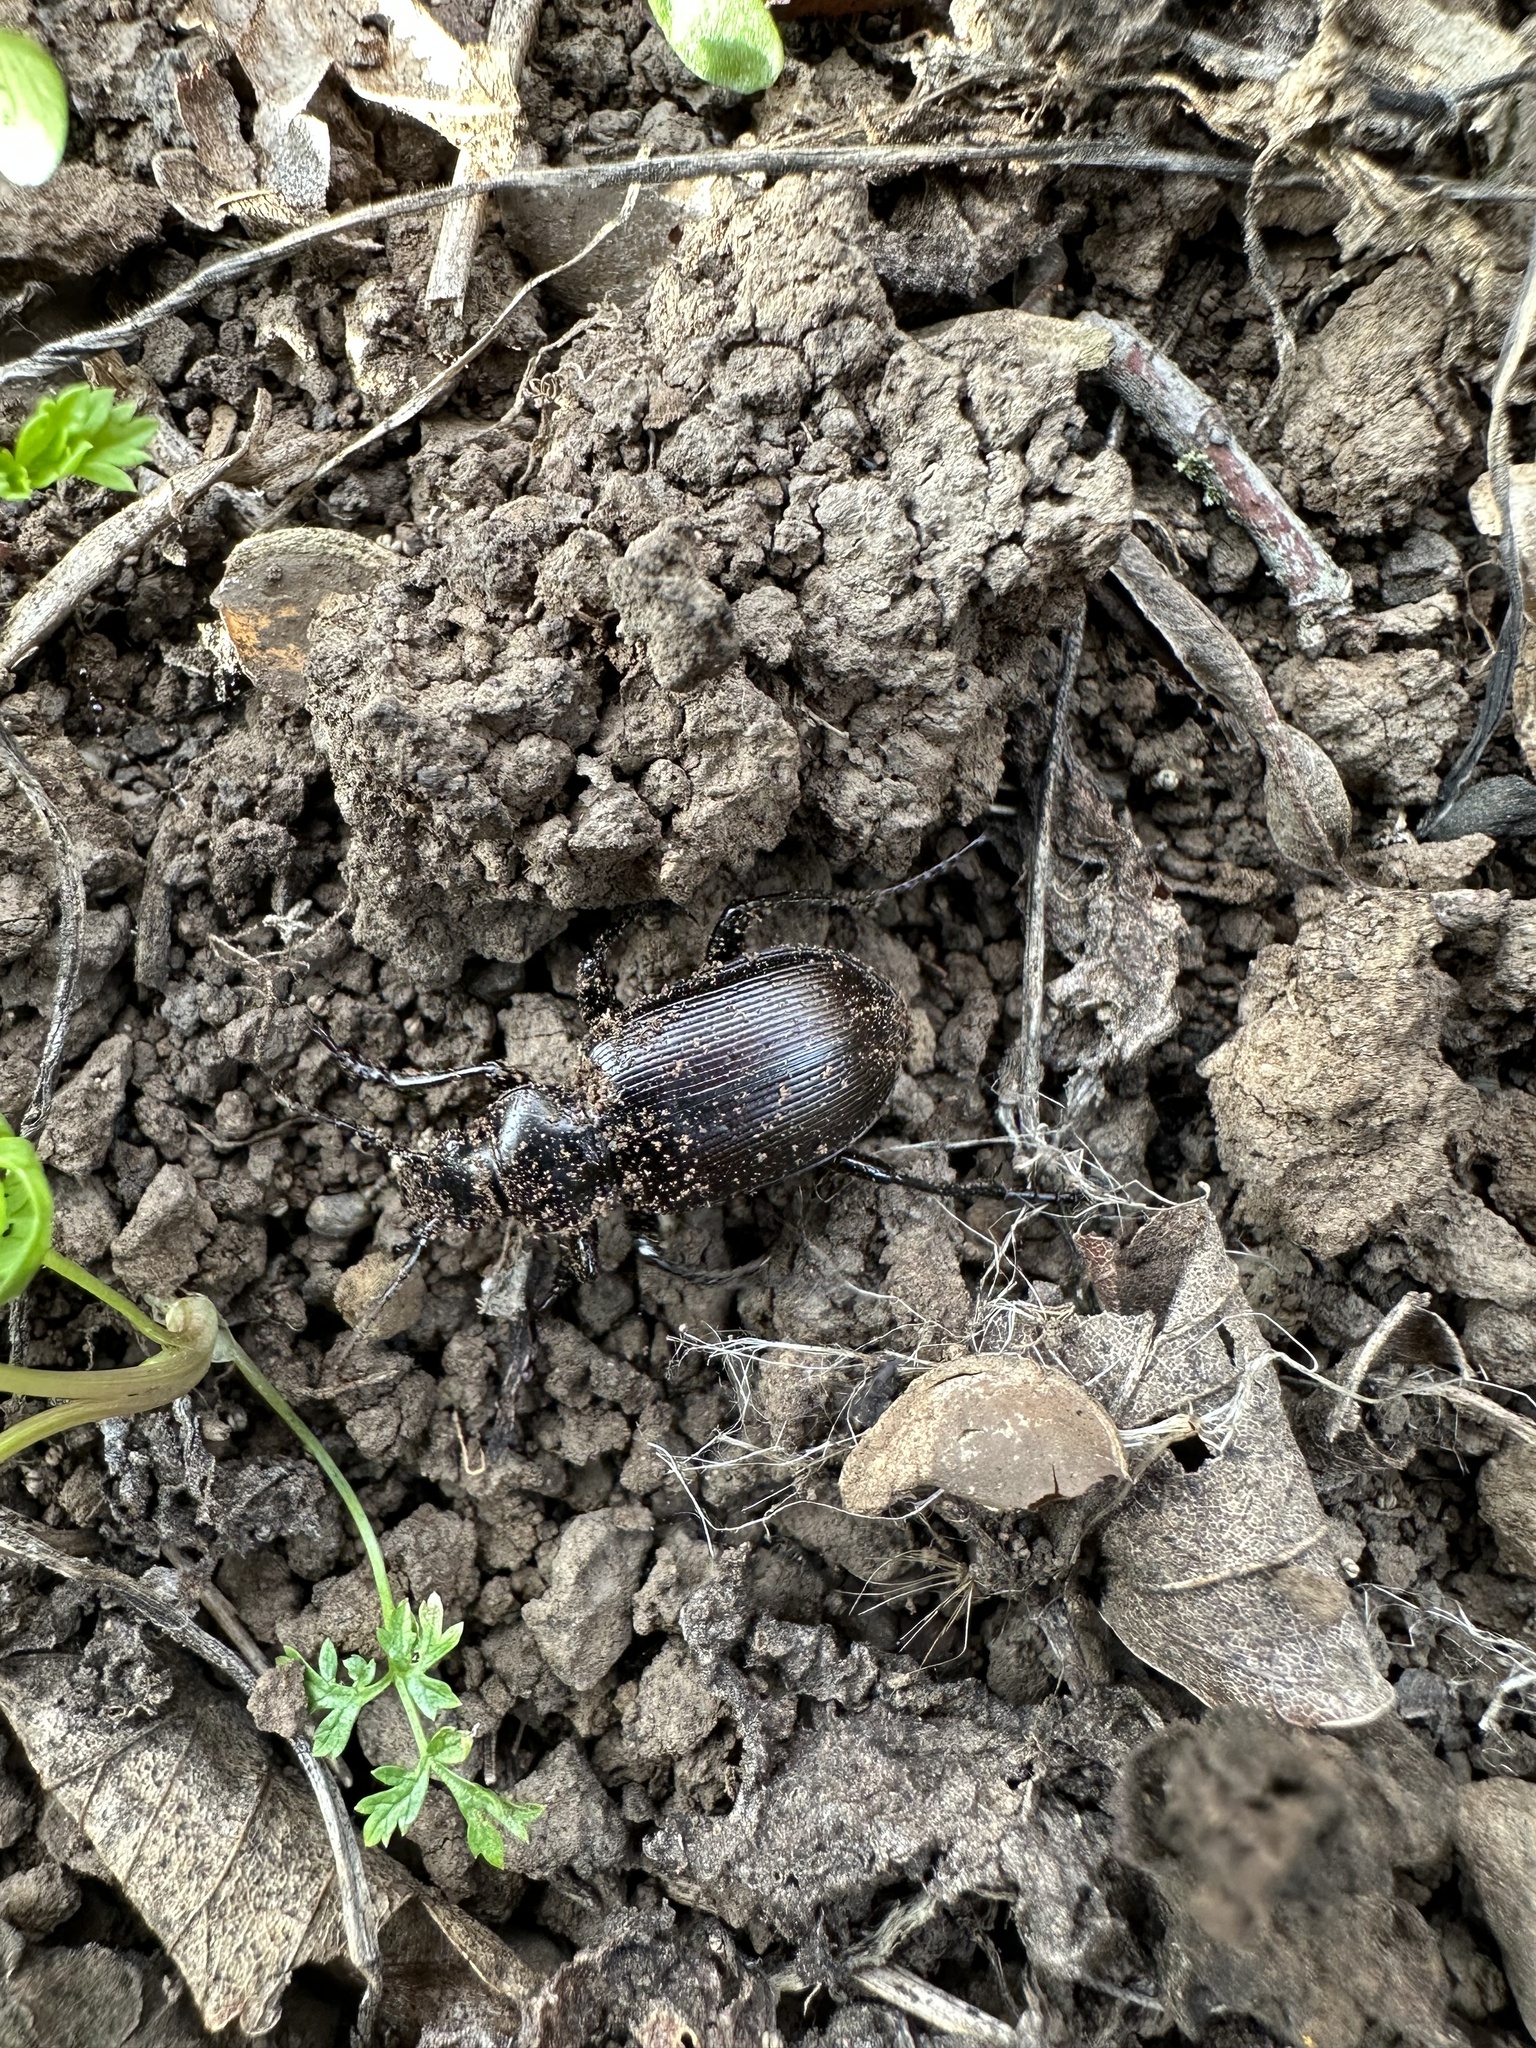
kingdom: Animalia
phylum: Arthropoda
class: Insecta
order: Coleoptera
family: Carabidae
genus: Calosoma
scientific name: Calosoma vagans
